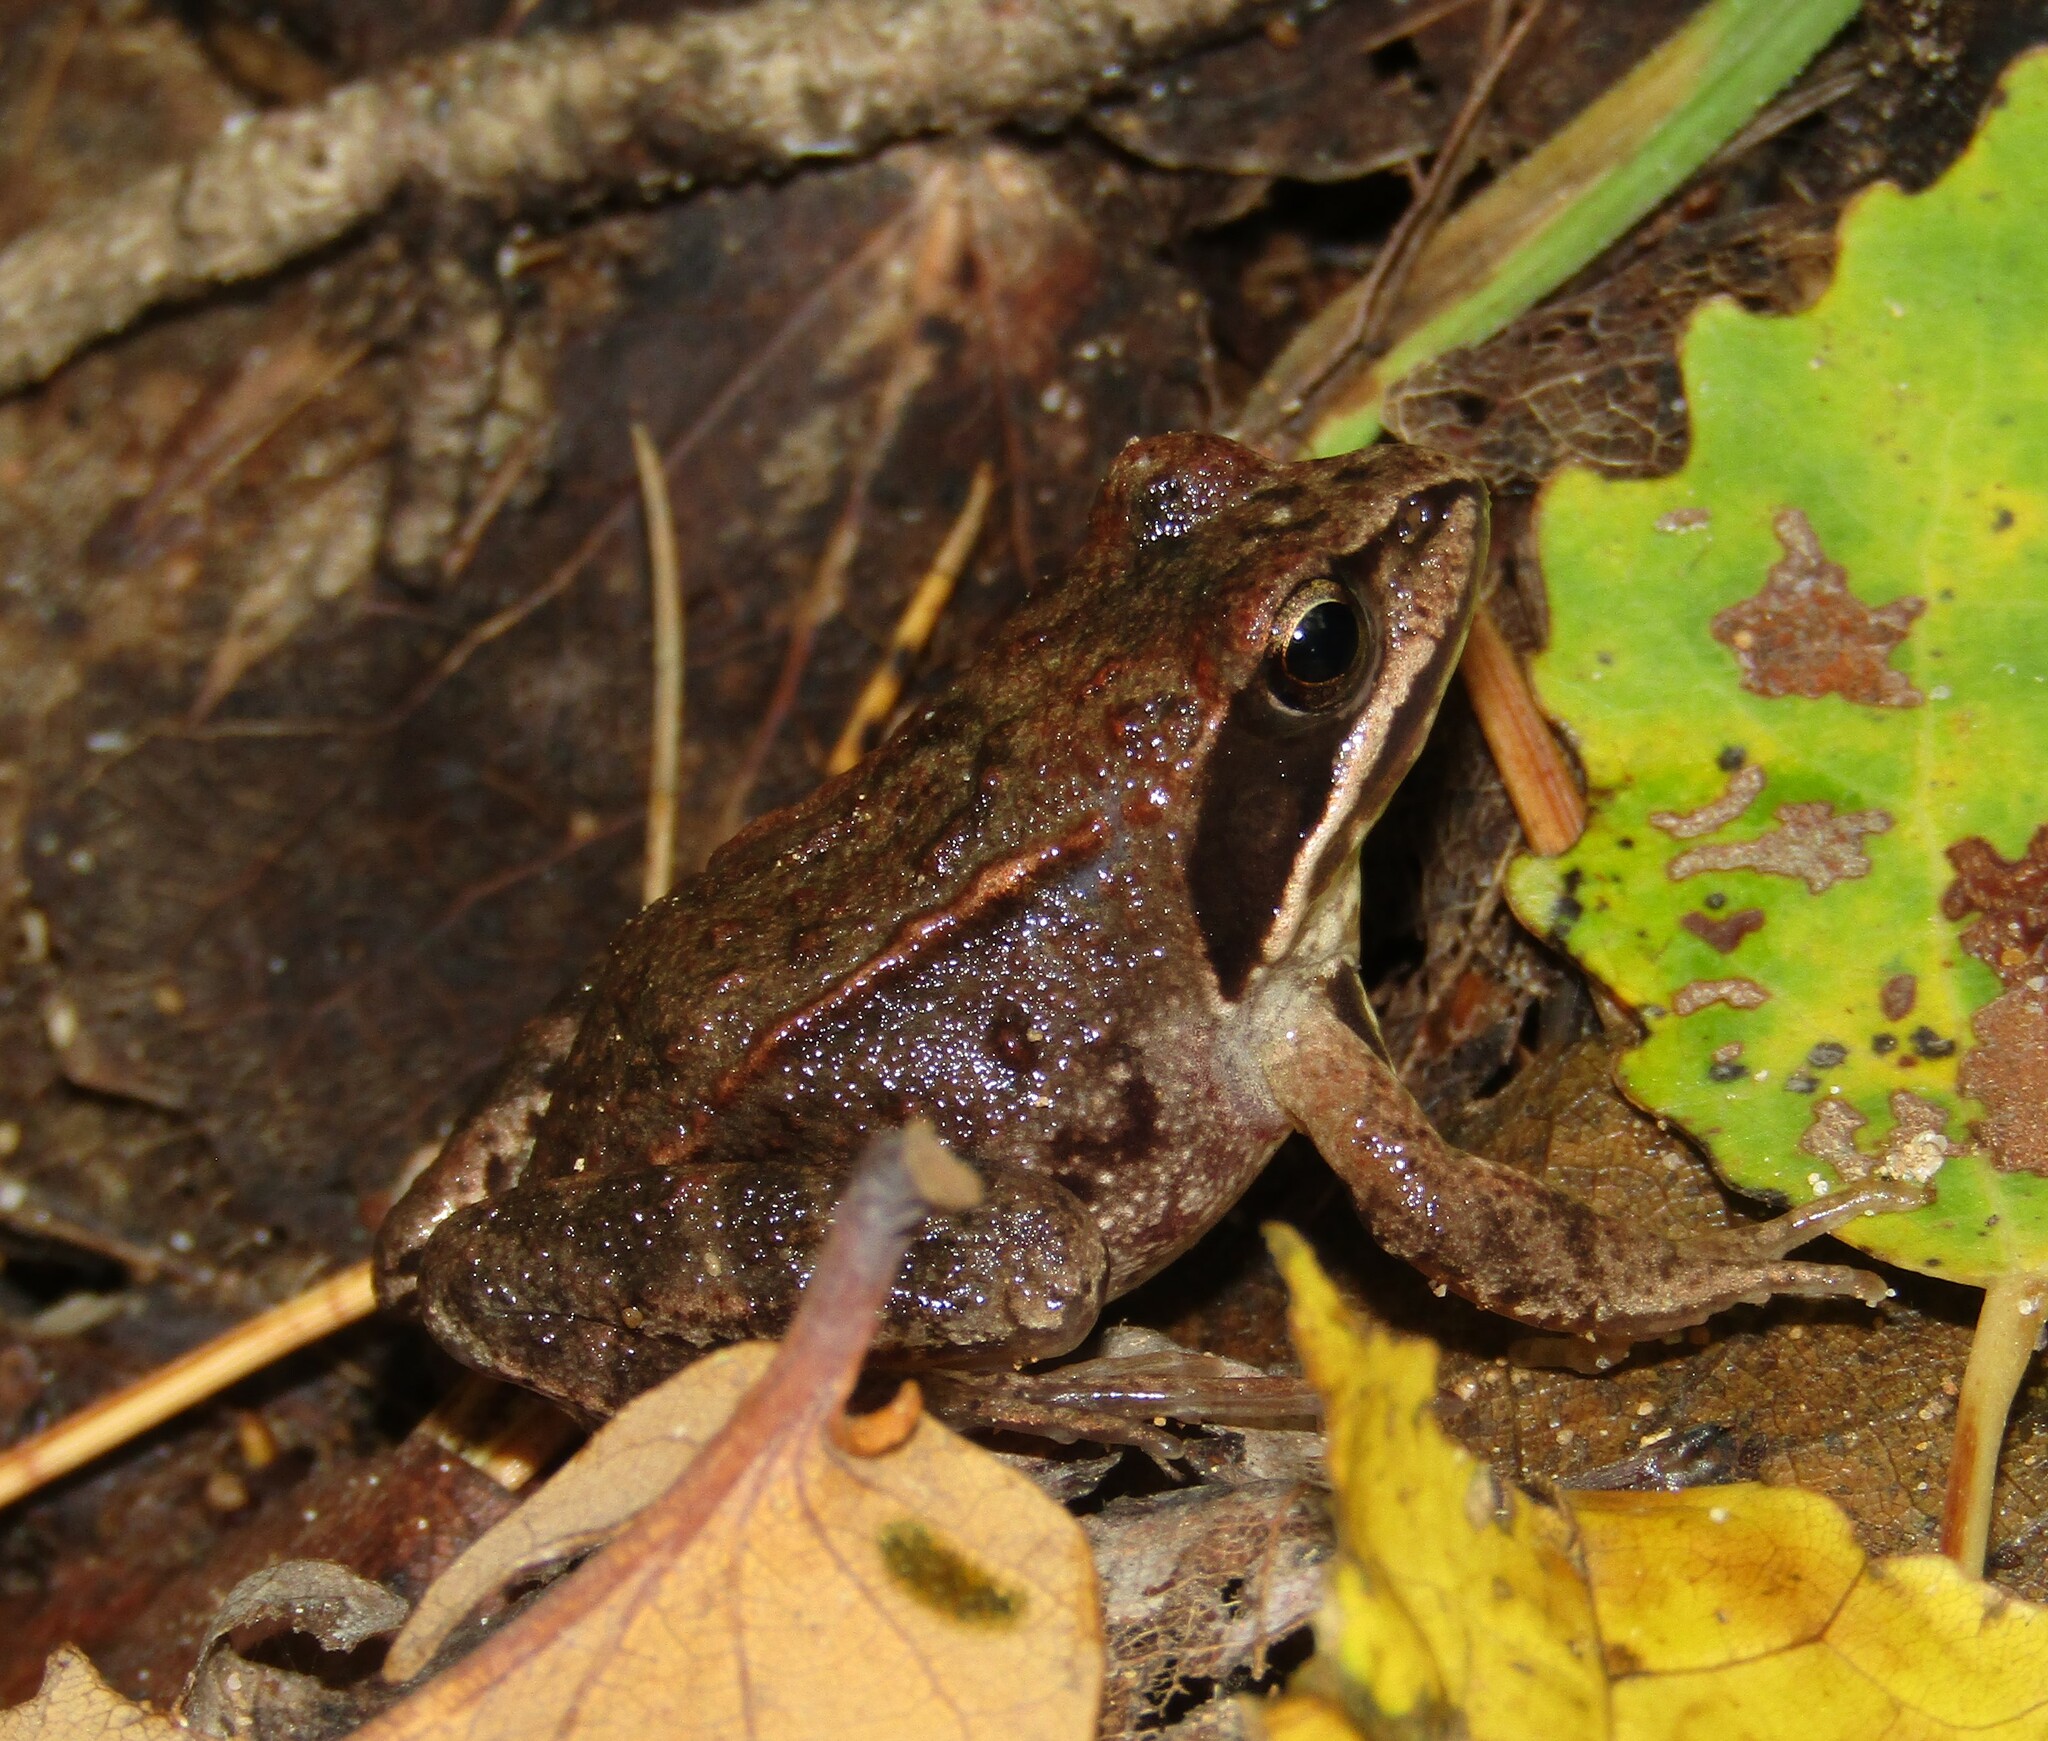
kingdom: Animalia
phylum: Chordata
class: Amphibia
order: Anura
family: Ranidae
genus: Rana
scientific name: Rana arvalis
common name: Moor frog
